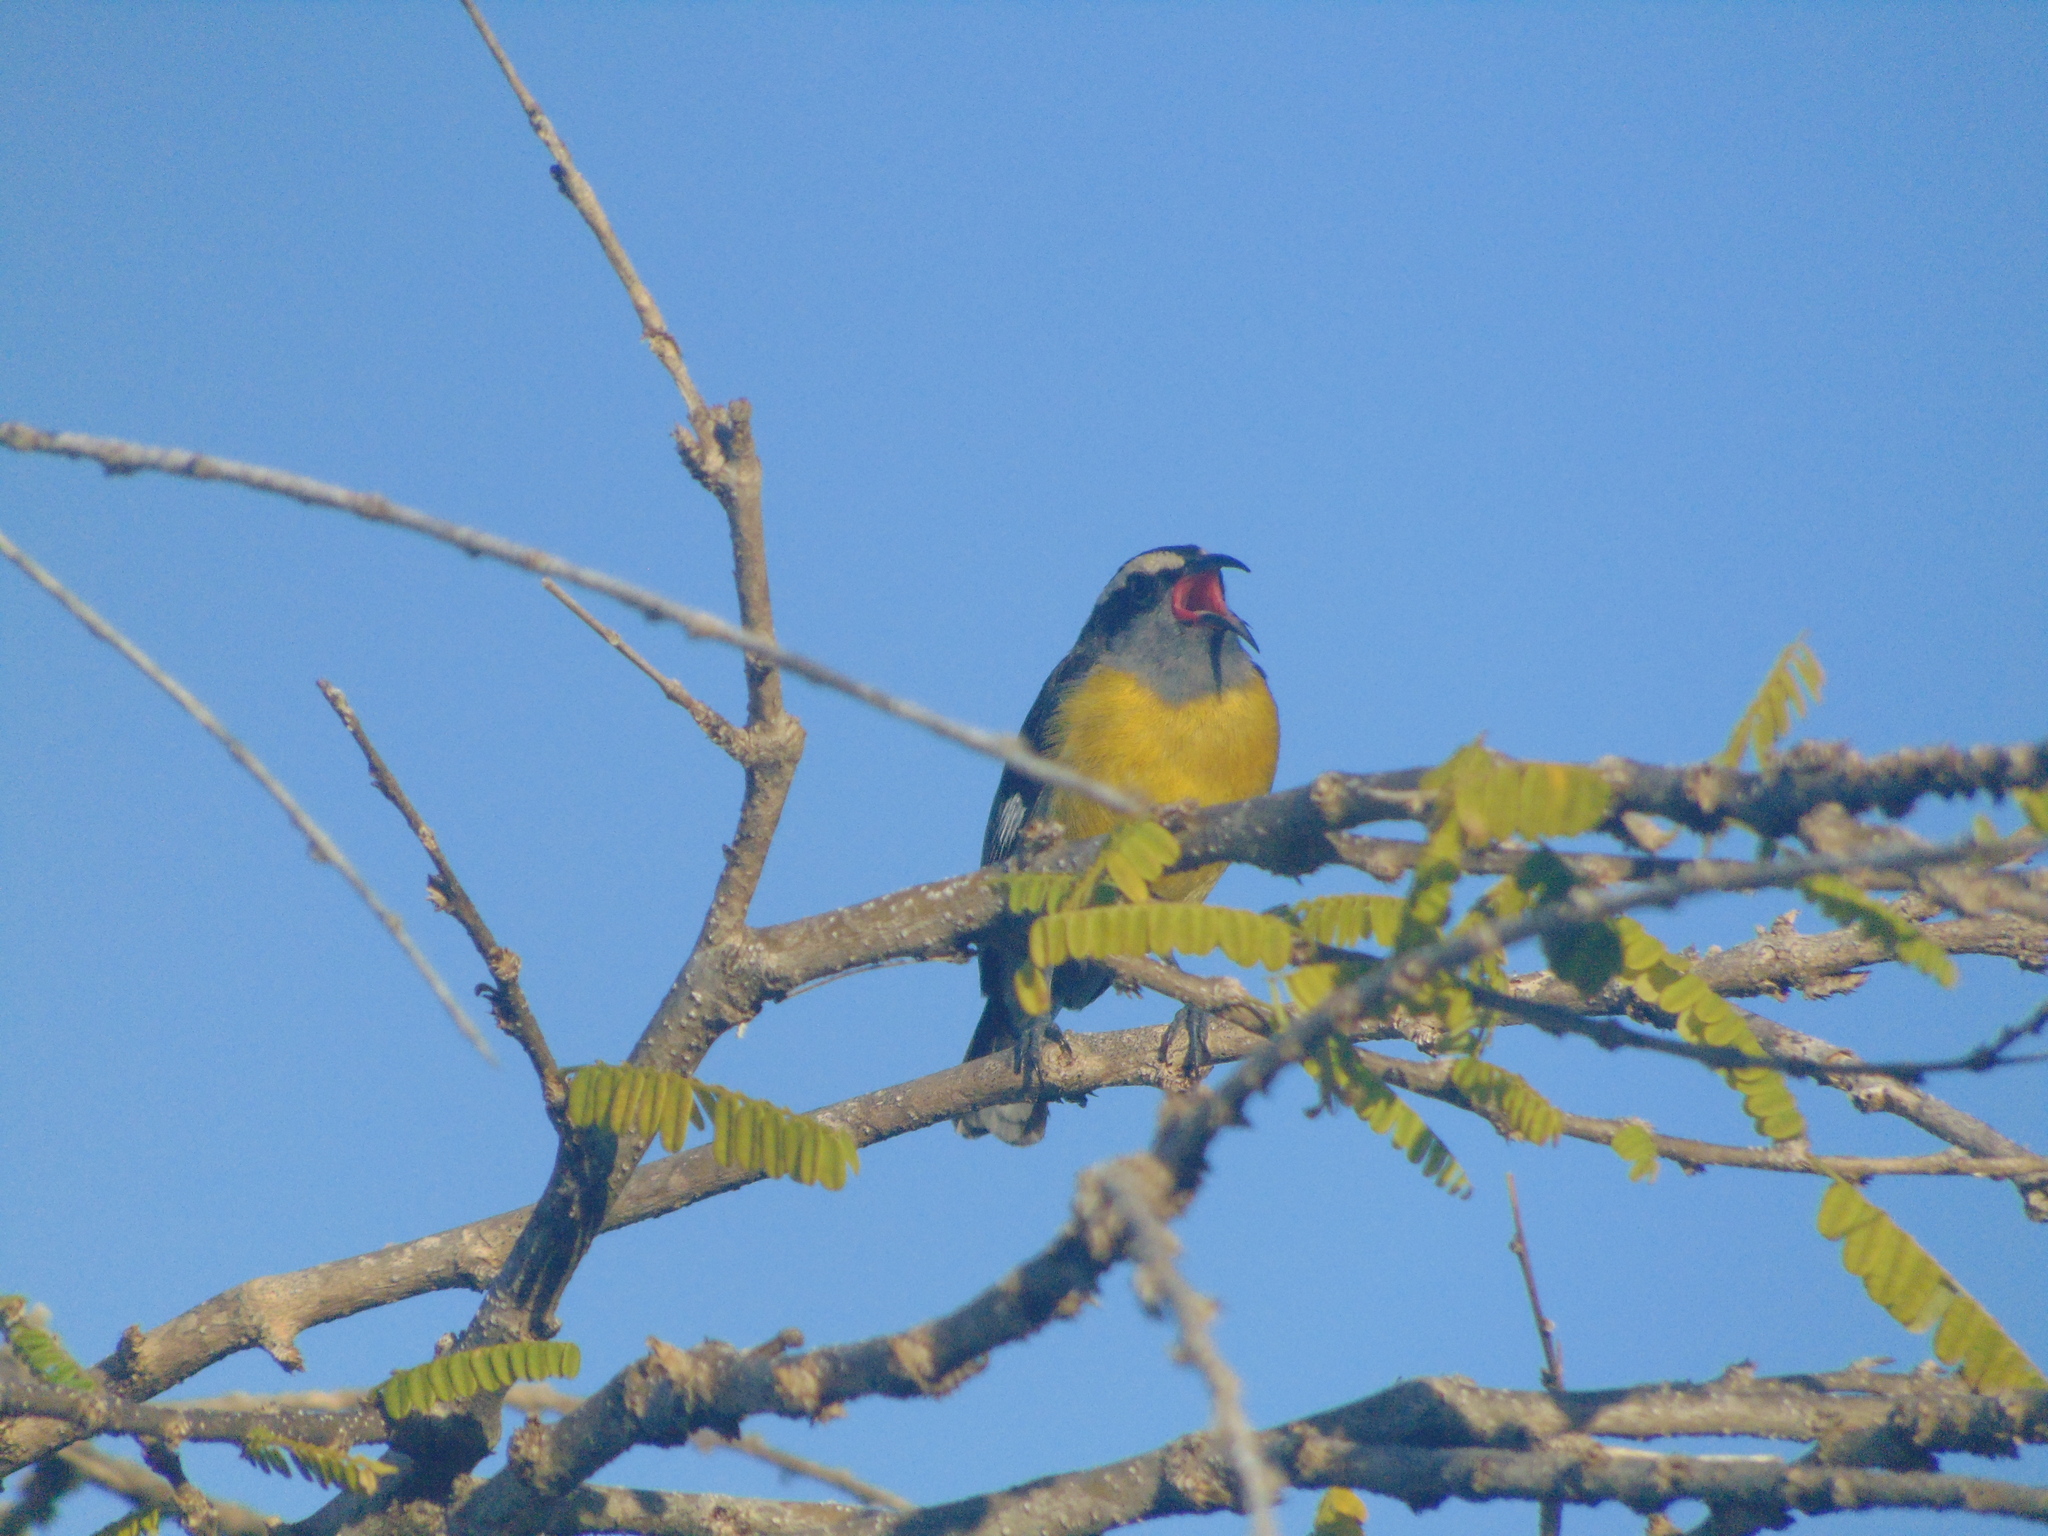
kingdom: Animalia
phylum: Chordata
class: Aves
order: Passeriformes
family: Thraupidae
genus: Coereba
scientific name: Coereba flaveola
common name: Bananaquit
